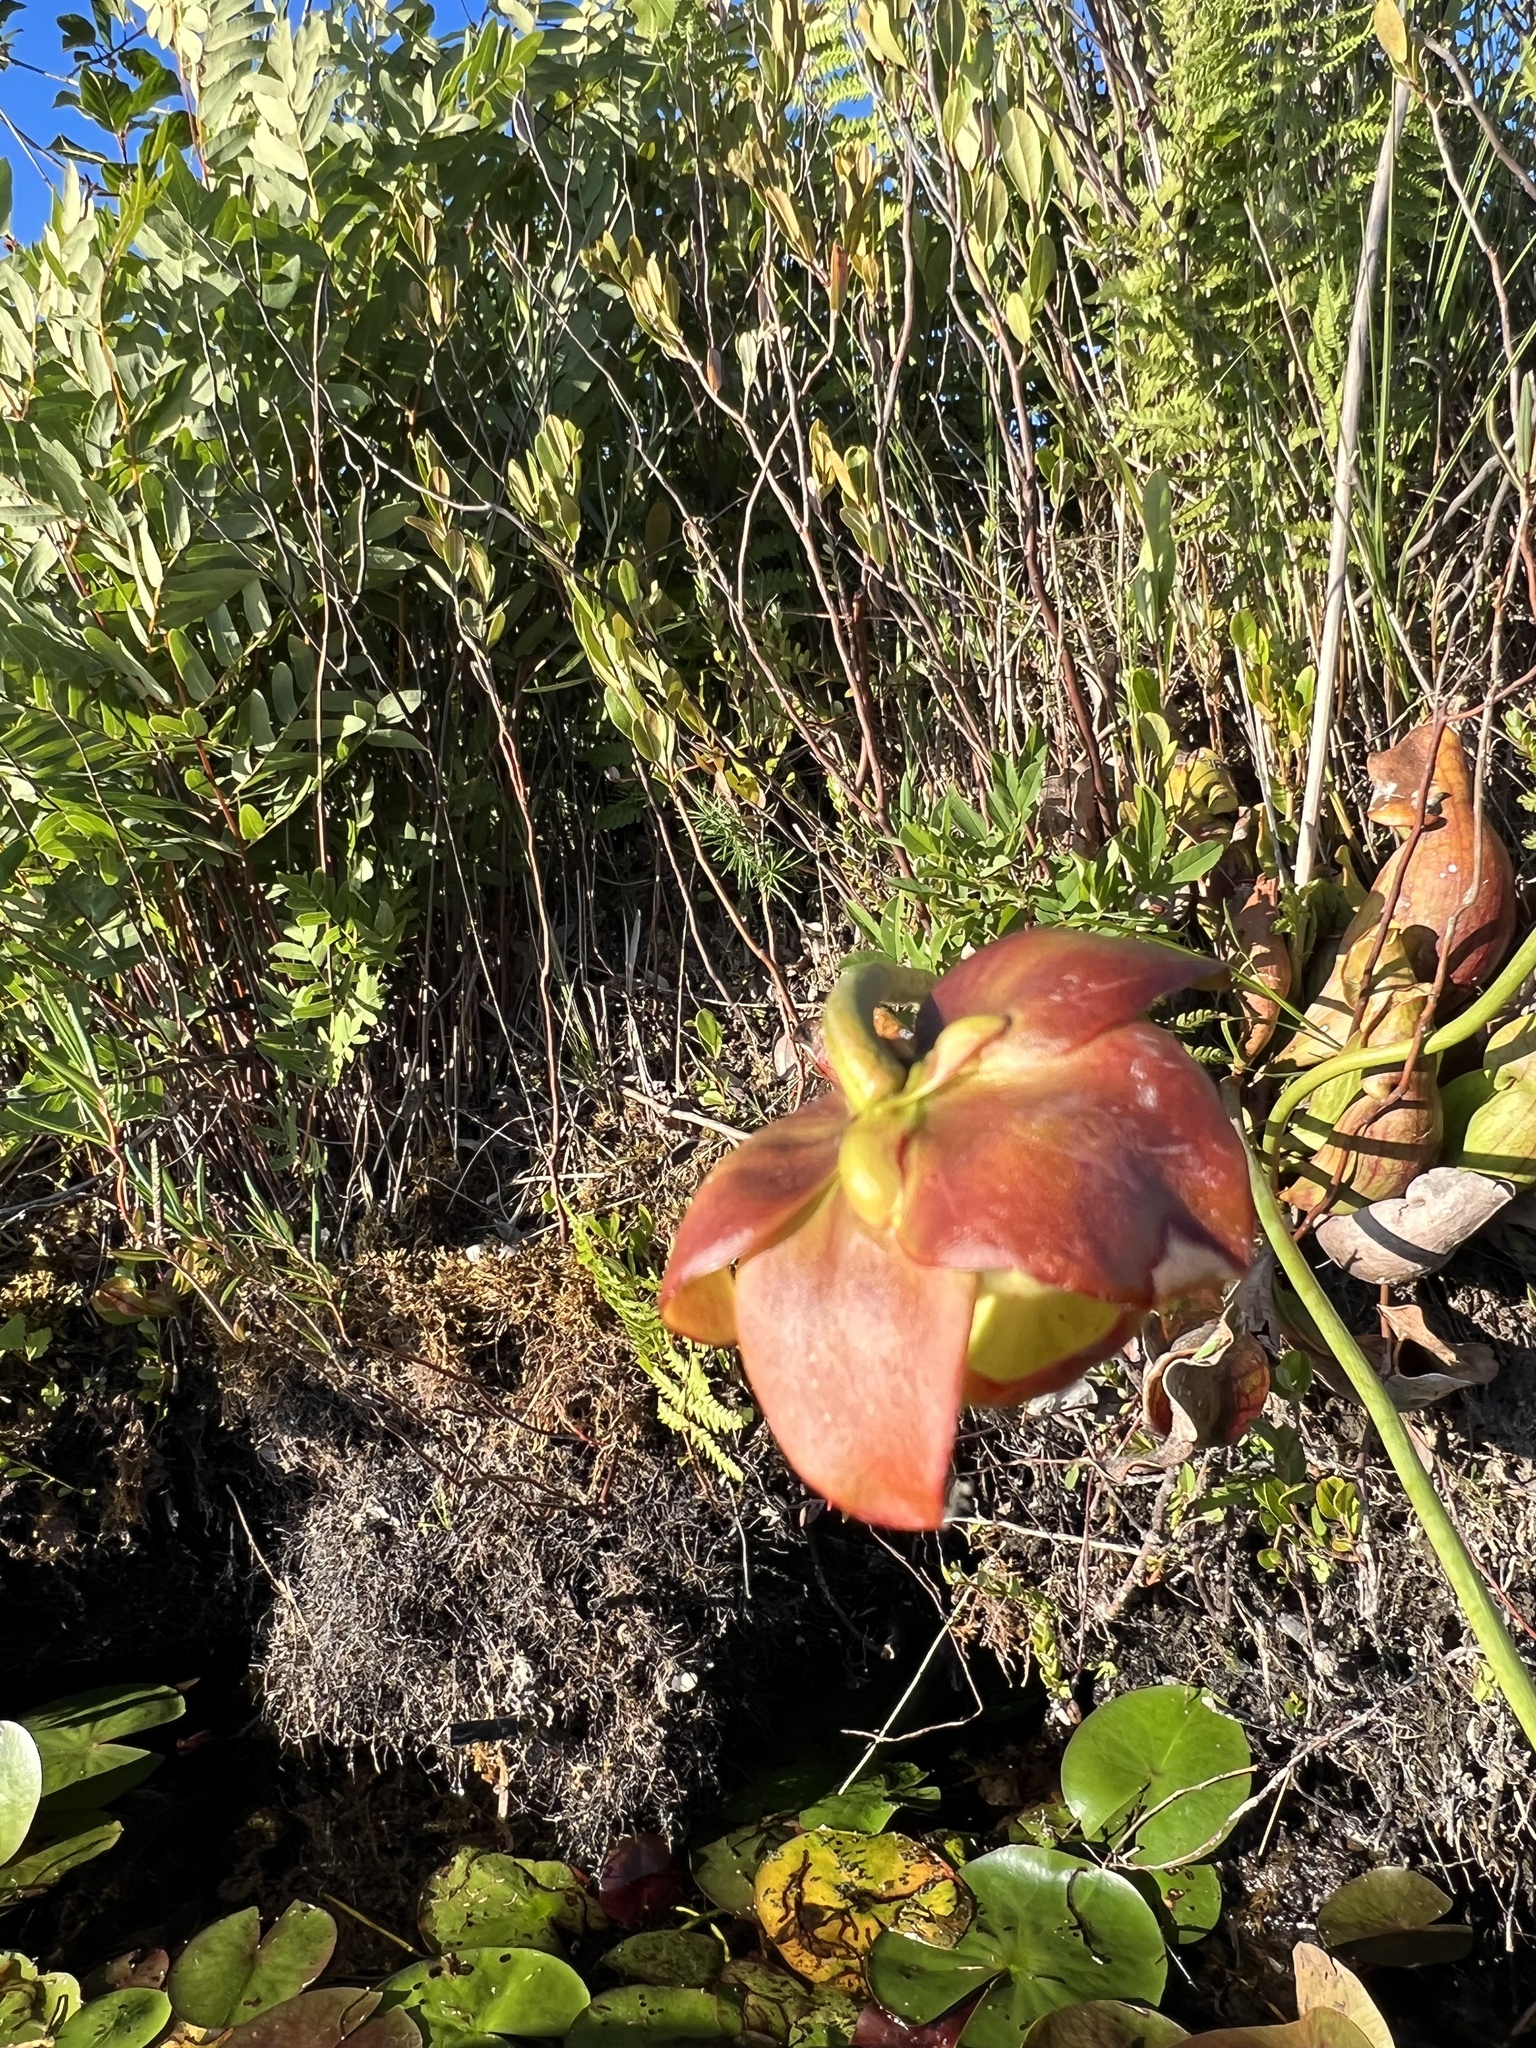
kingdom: Plantae
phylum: Tracheophyta
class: Magnoliopsida
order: Ericales
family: Sarraceniaceae
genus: Sarracenia
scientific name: Sarracenia purpurea
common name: Pitcherplant
